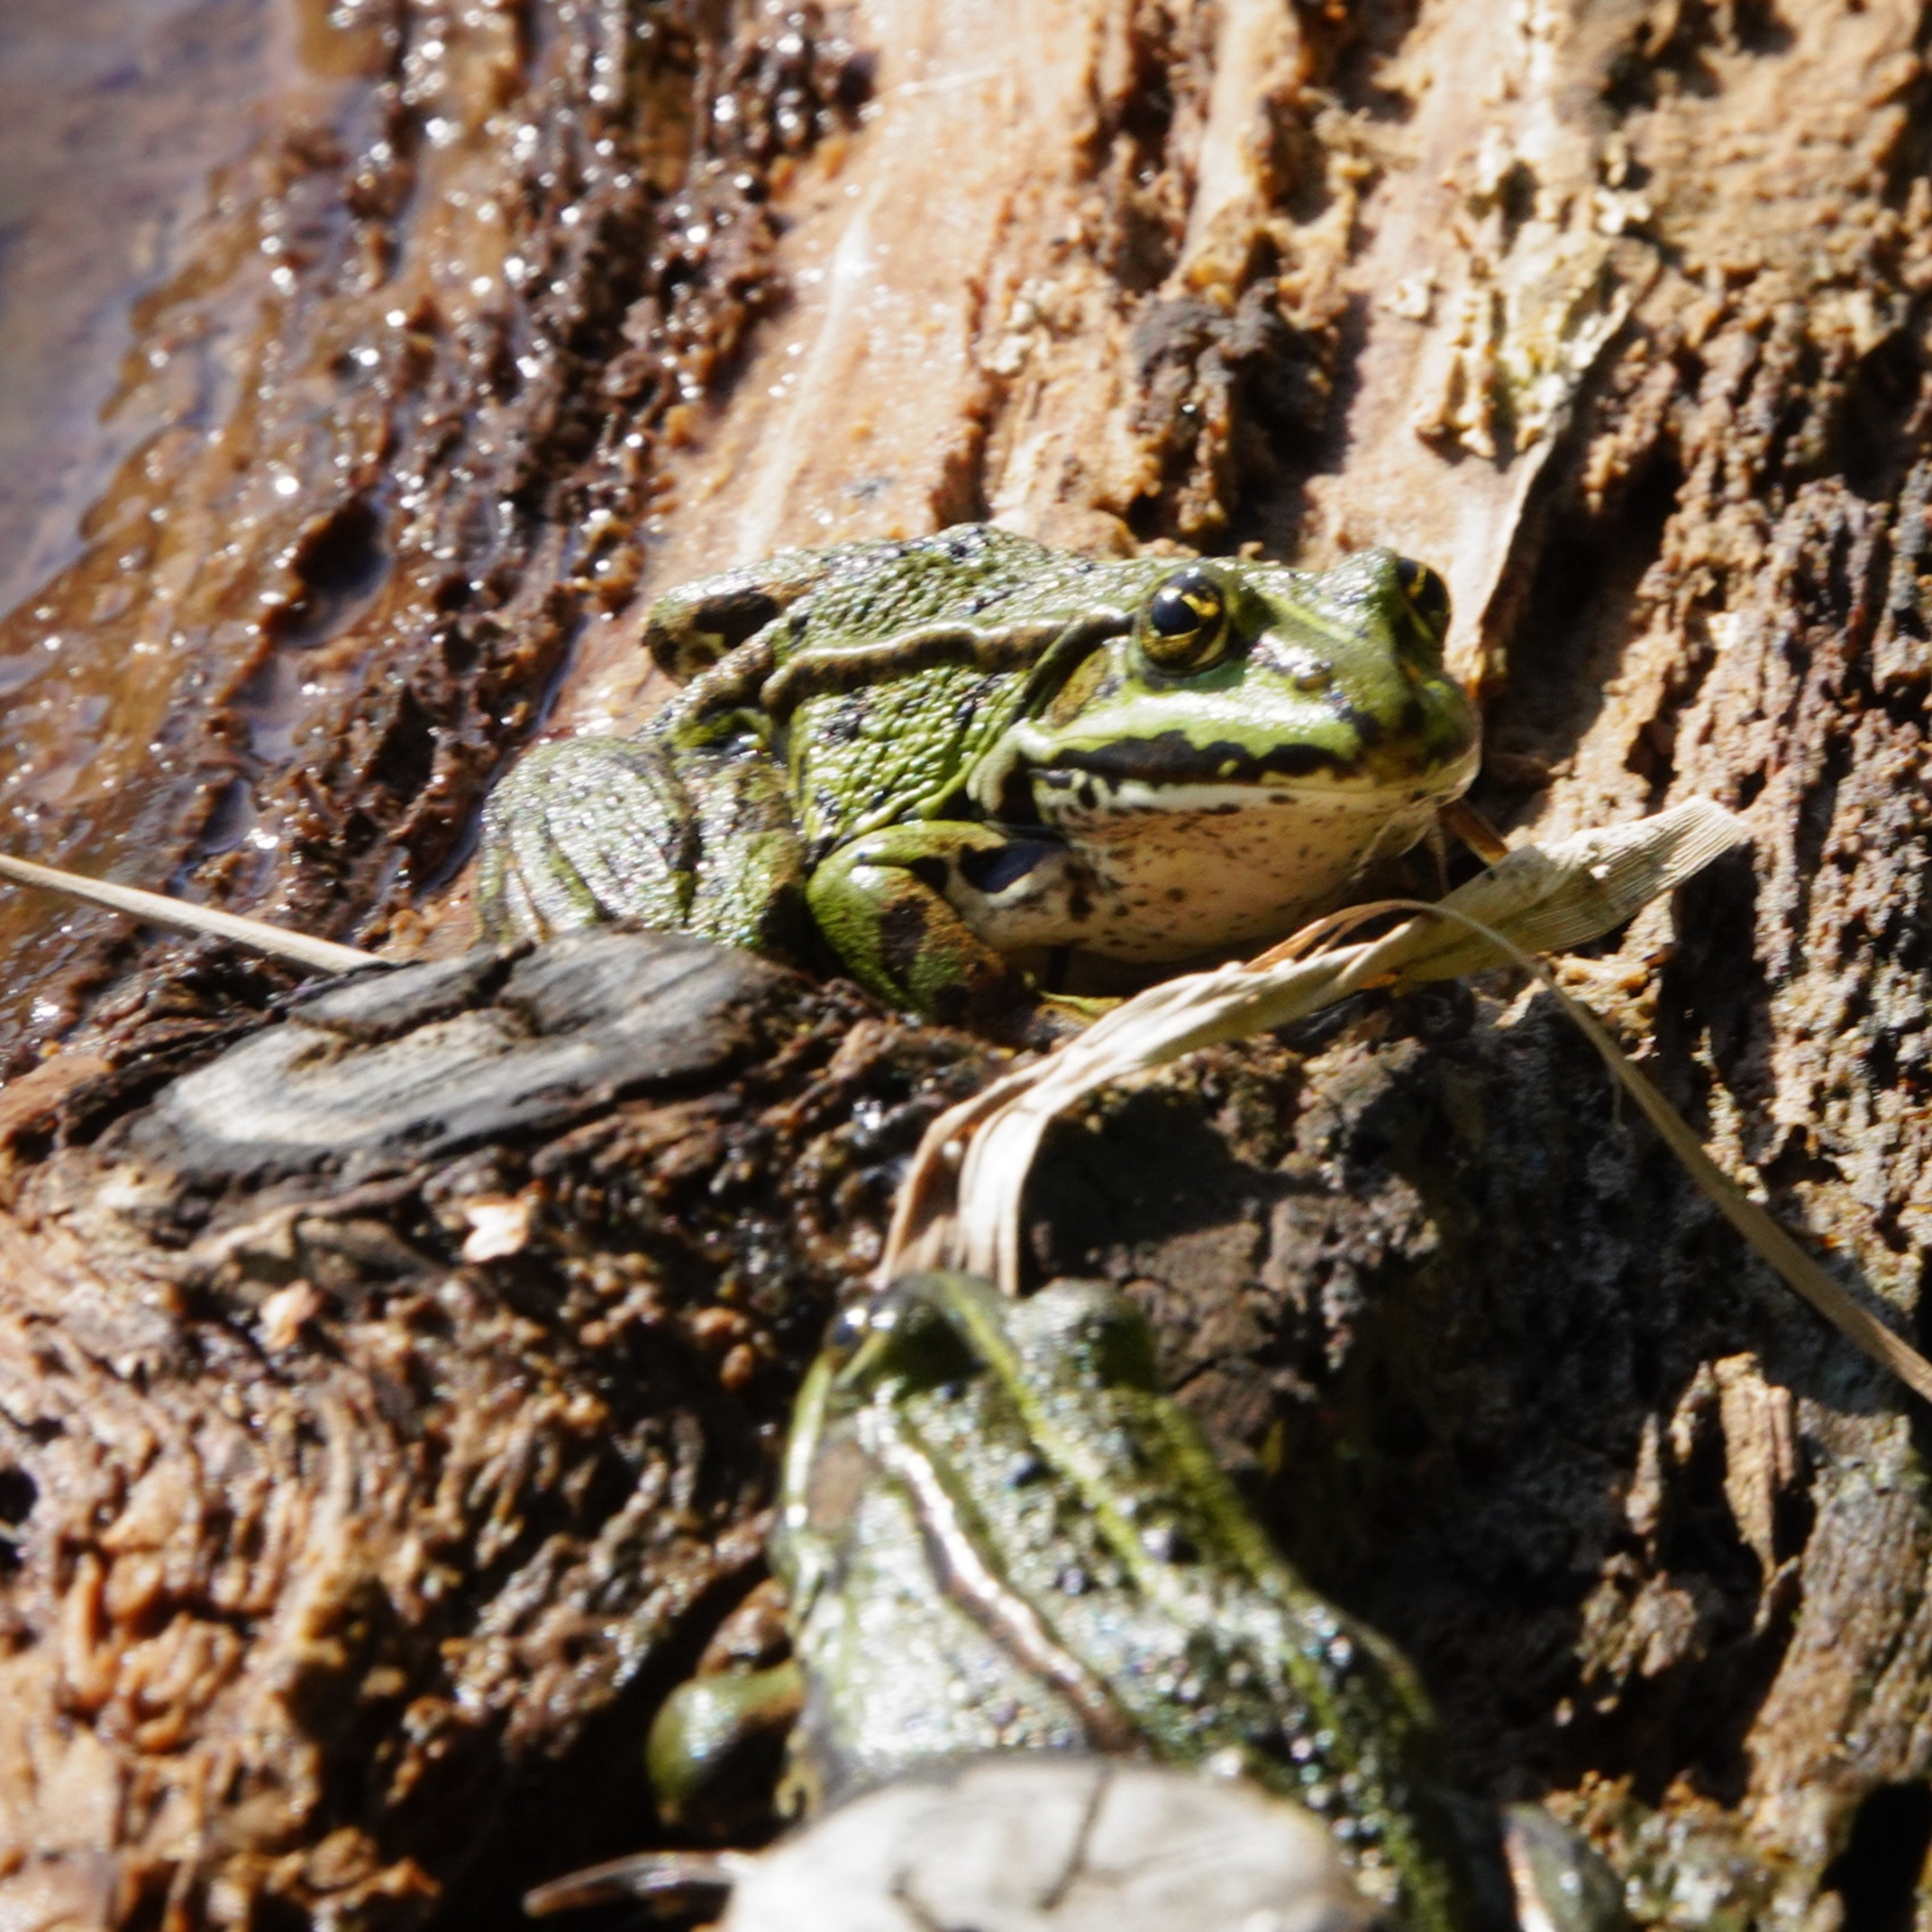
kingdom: Animalia
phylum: Chordata
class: Amphibia
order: Anura
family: Ranidae
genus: Pelophylax
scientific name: Pelophylax lessonae
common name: Pool frog
